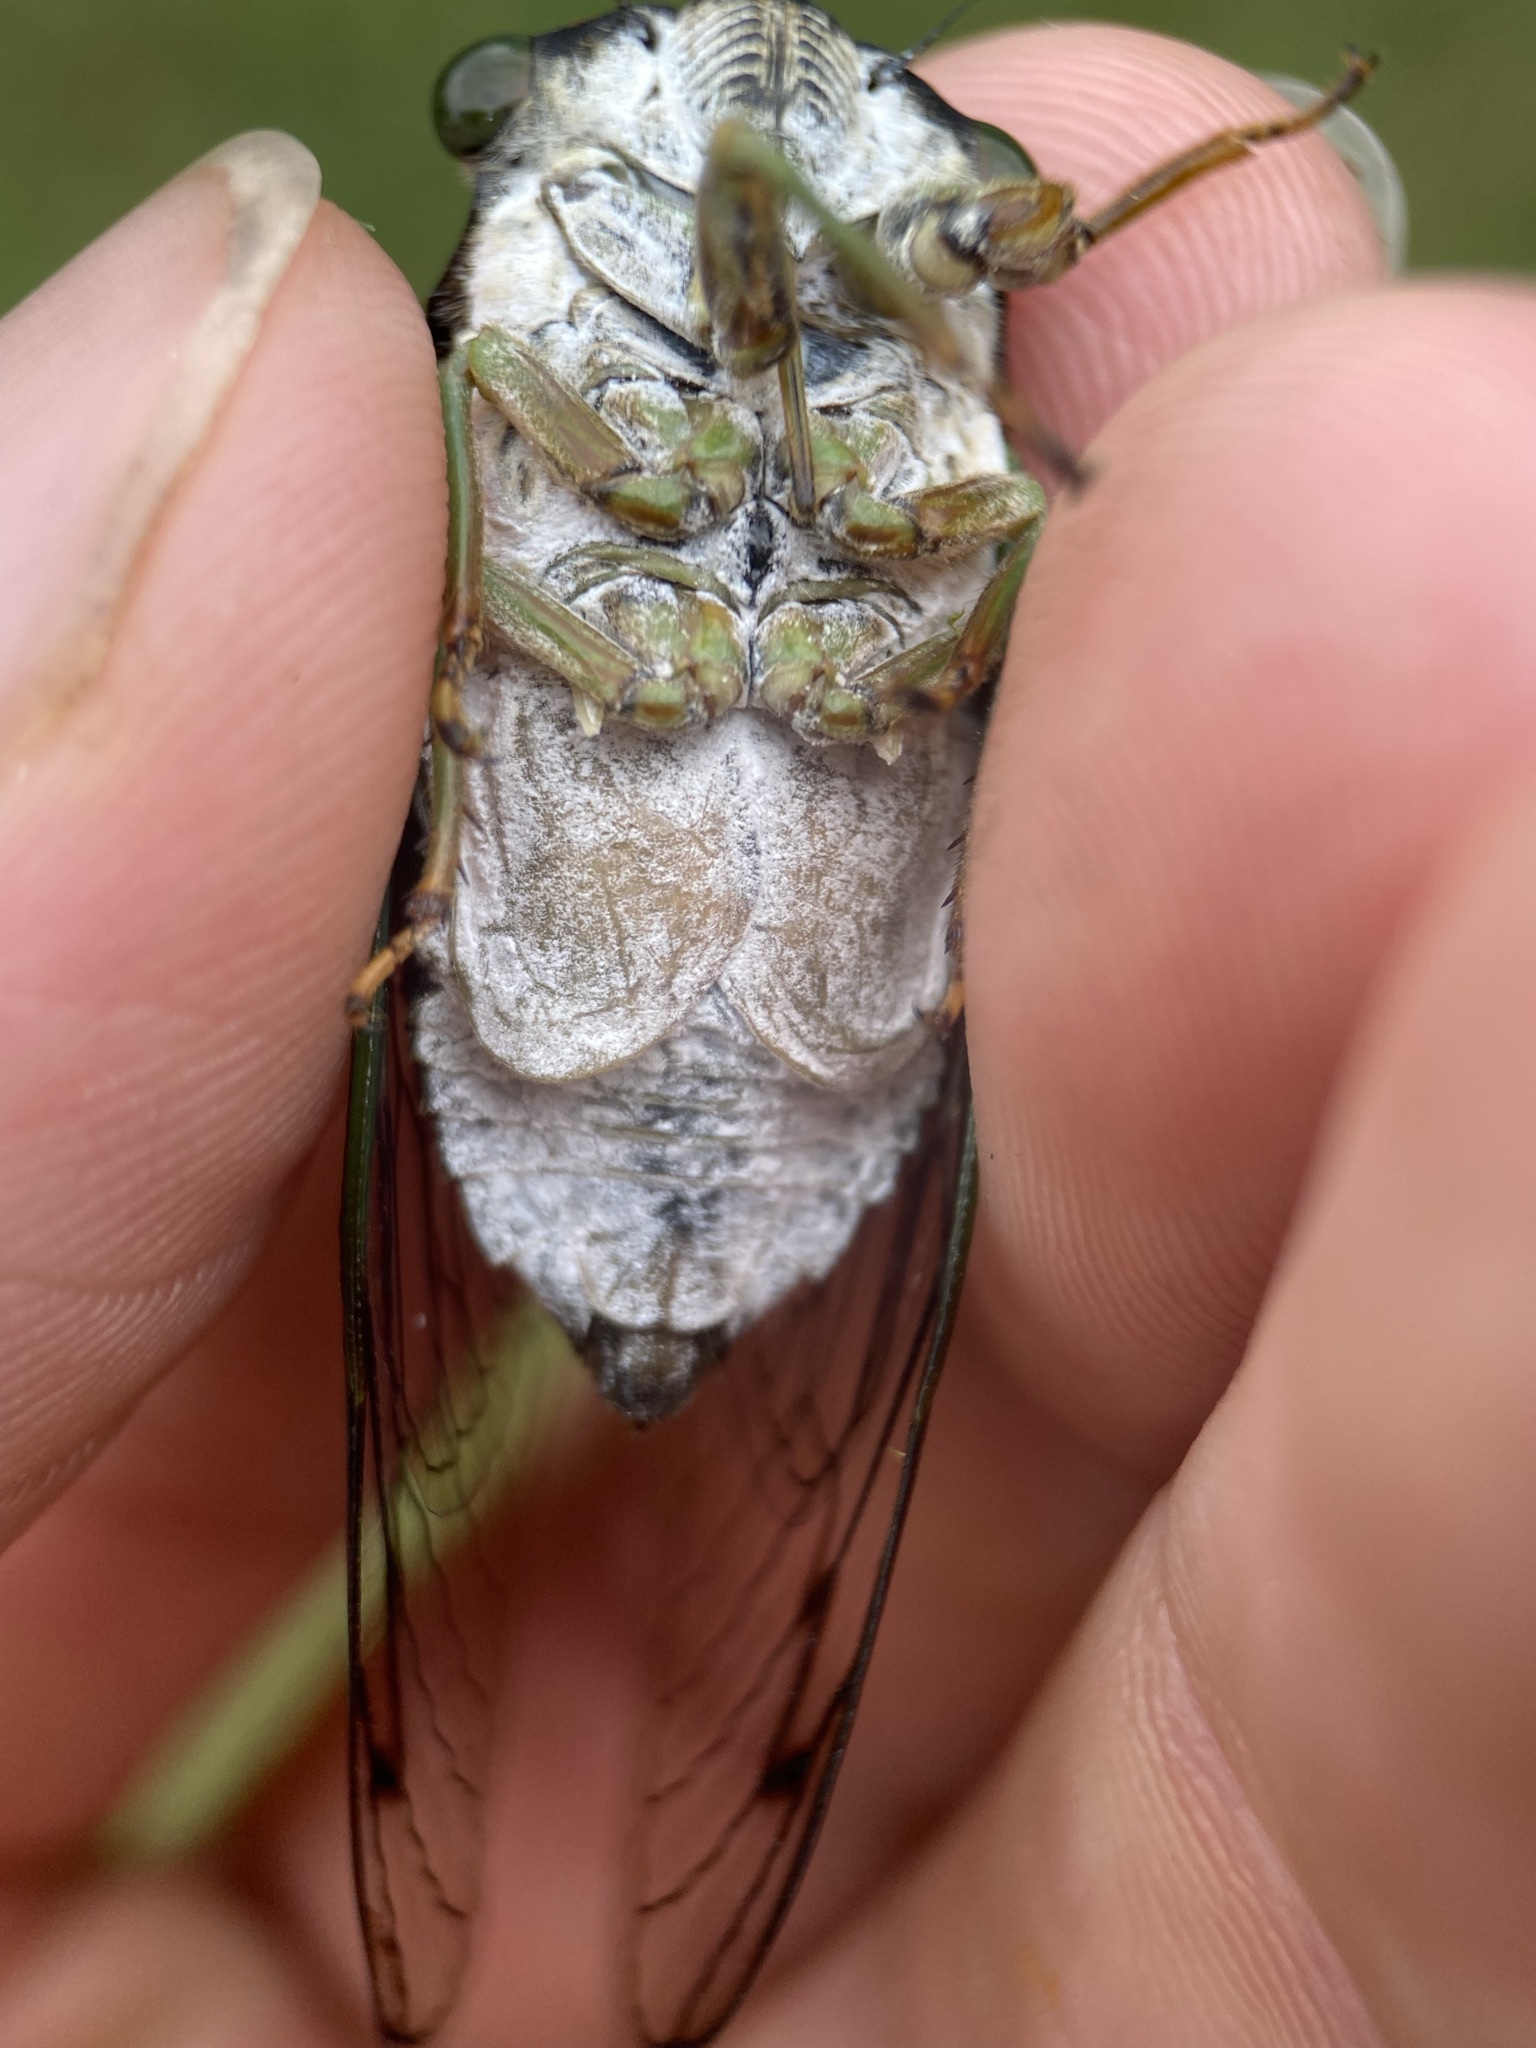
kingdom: Animalia
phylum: Arthropoda
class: Insecta
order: Hemiptera
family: Cicadidae
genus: Neotibicen
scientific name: Neotibicen tibicen
